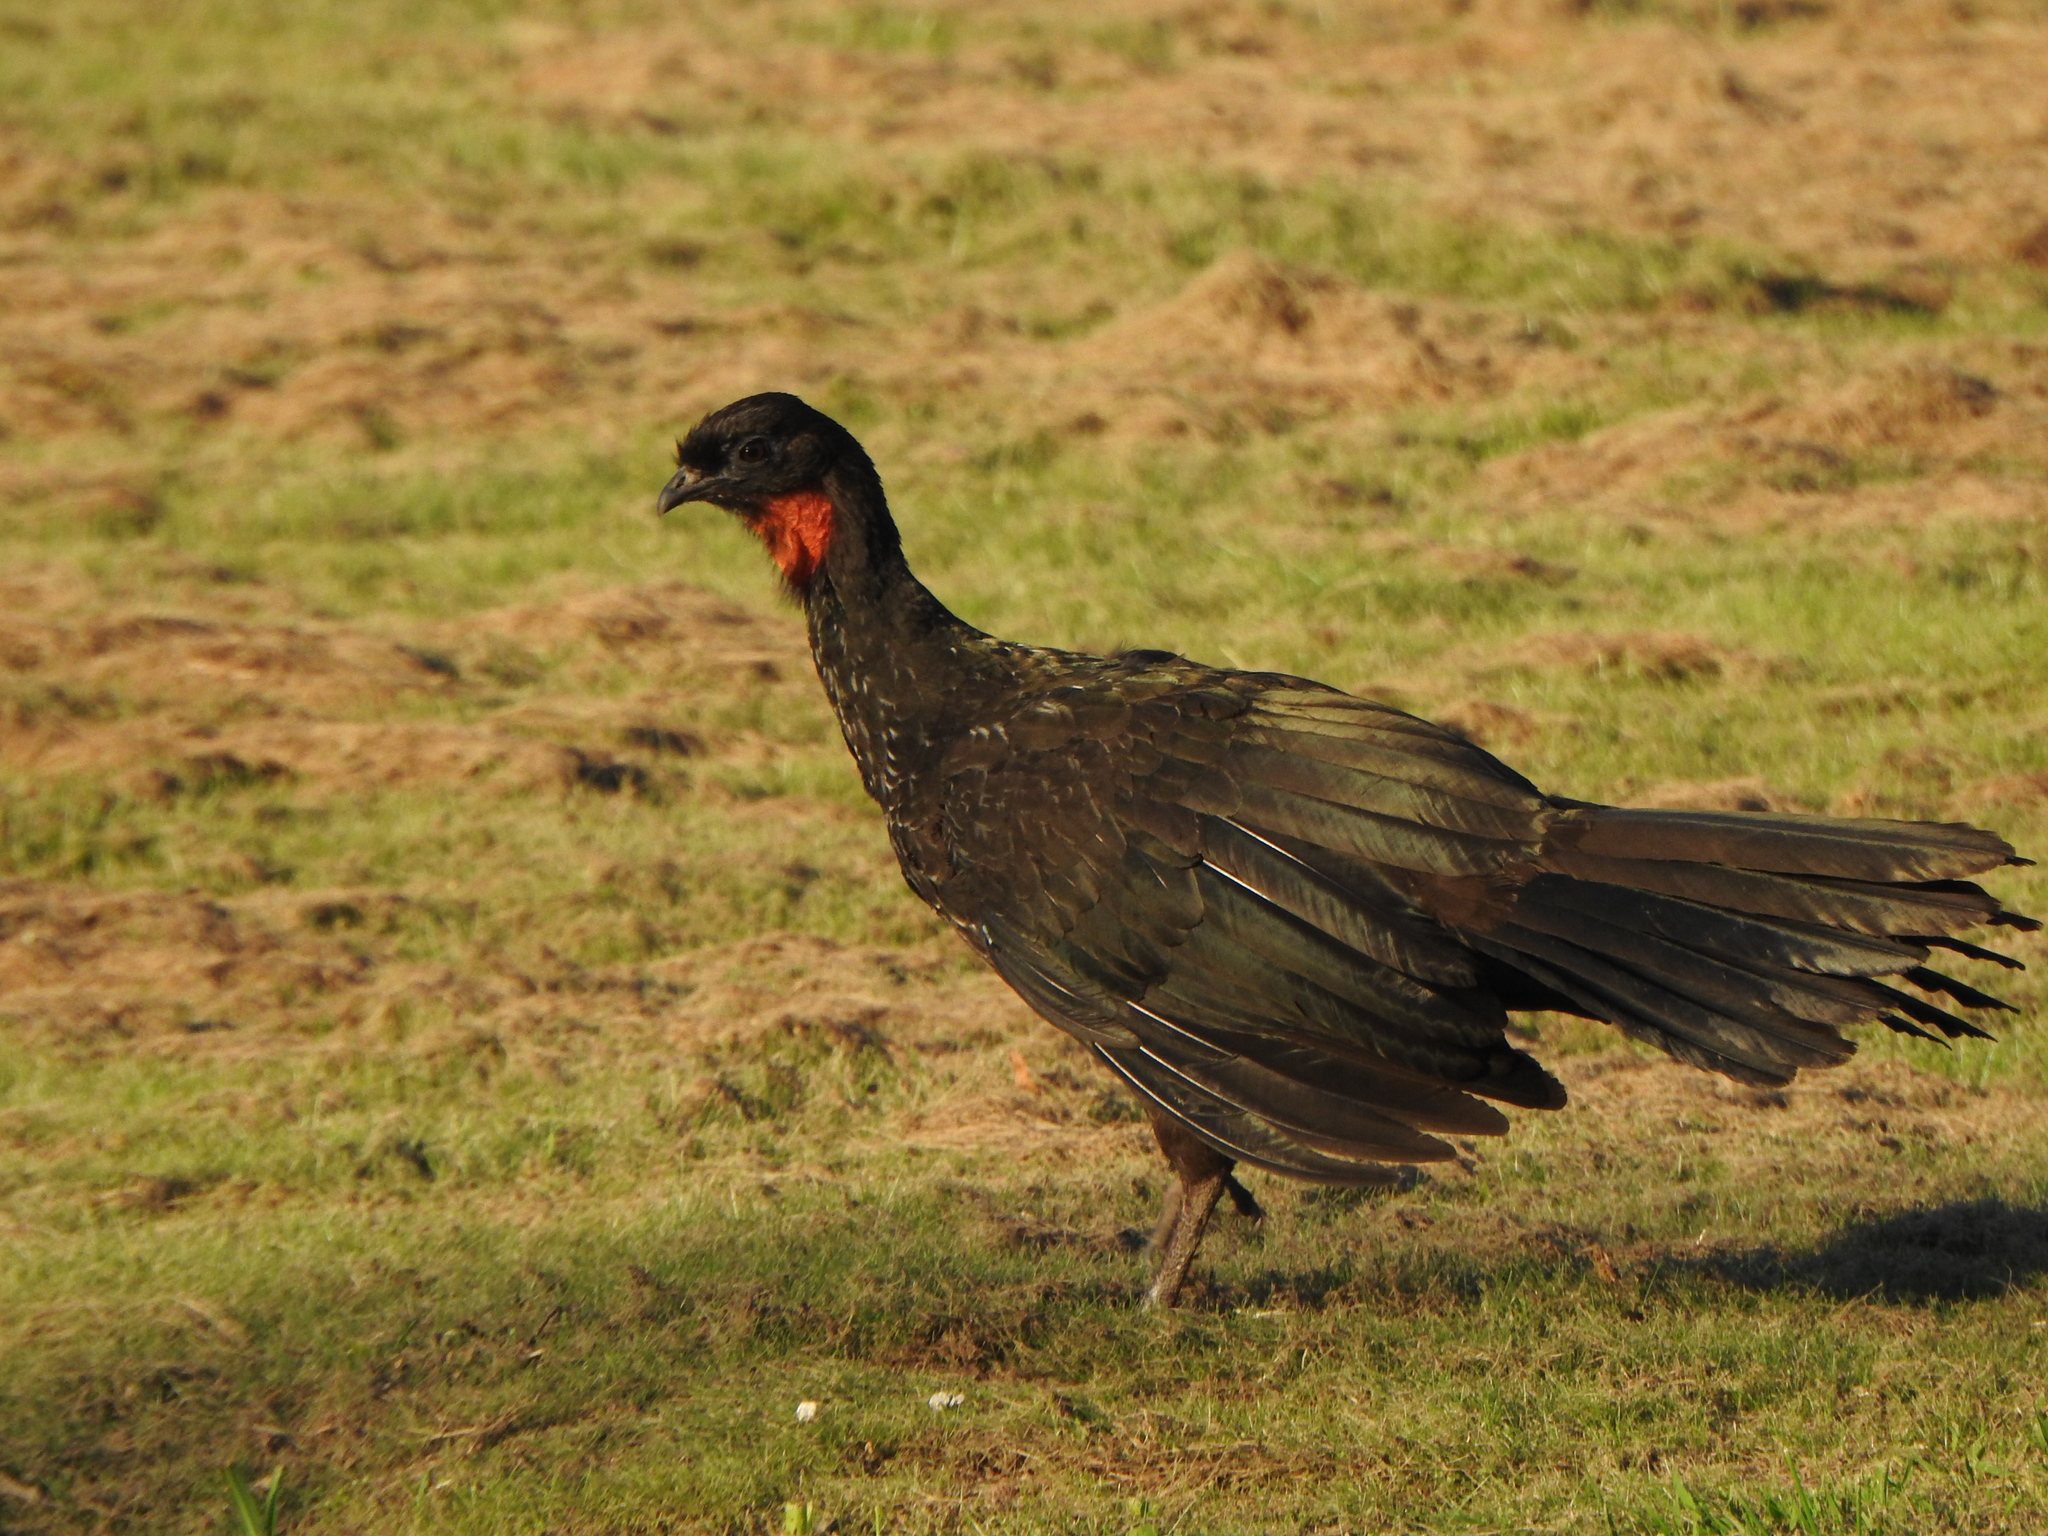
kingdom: Animalia
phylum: Chordata
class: Aves
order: Galliformes
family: Cracidae
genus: Penelope
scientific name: Penelope obscura
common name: Dusky-legged guan
